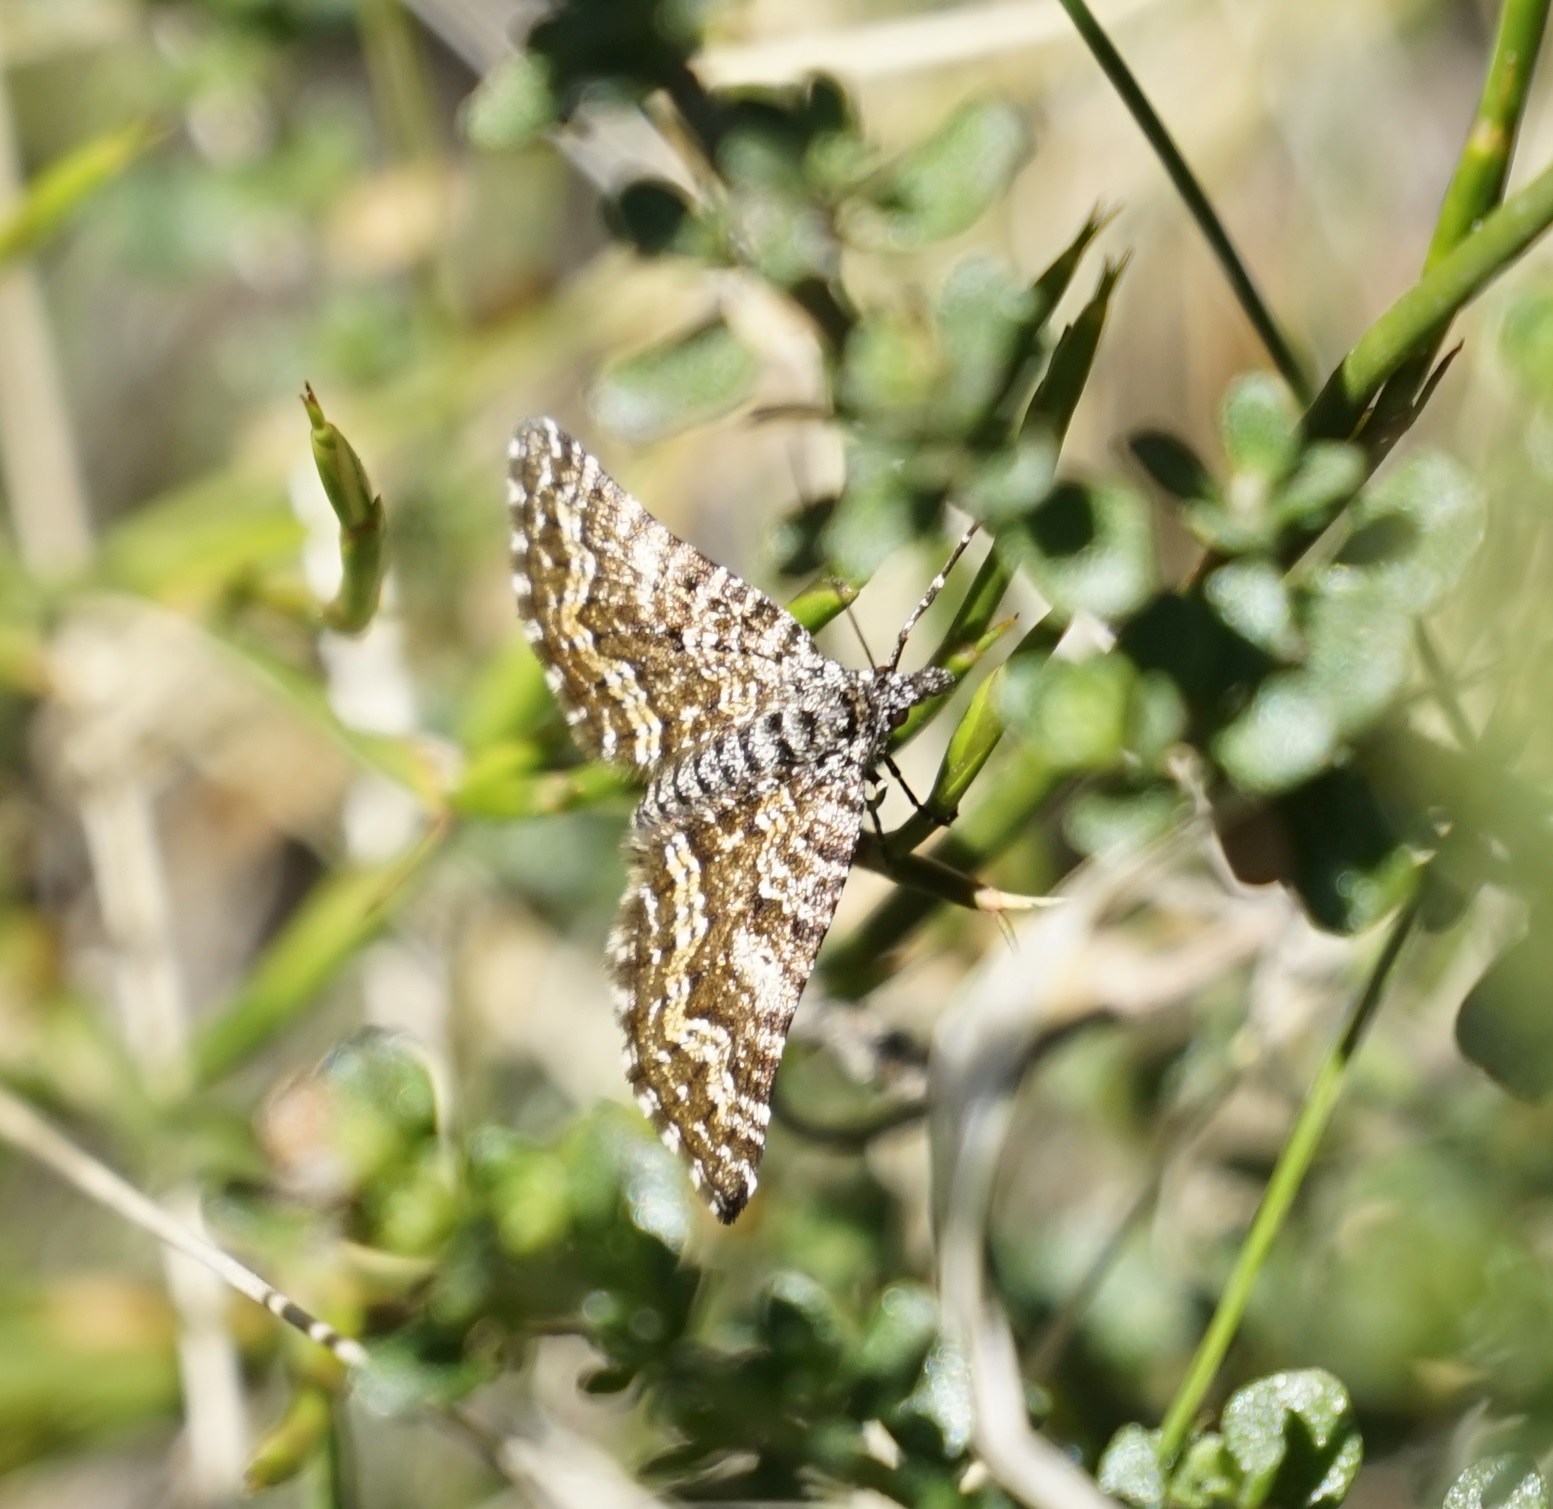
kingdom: Animalia
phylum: Arthropoda
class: Insecta
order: Lepidoptera
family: Geometridae
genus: Chrysolarentia
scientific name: Chrysolarentia phaeoxutha
